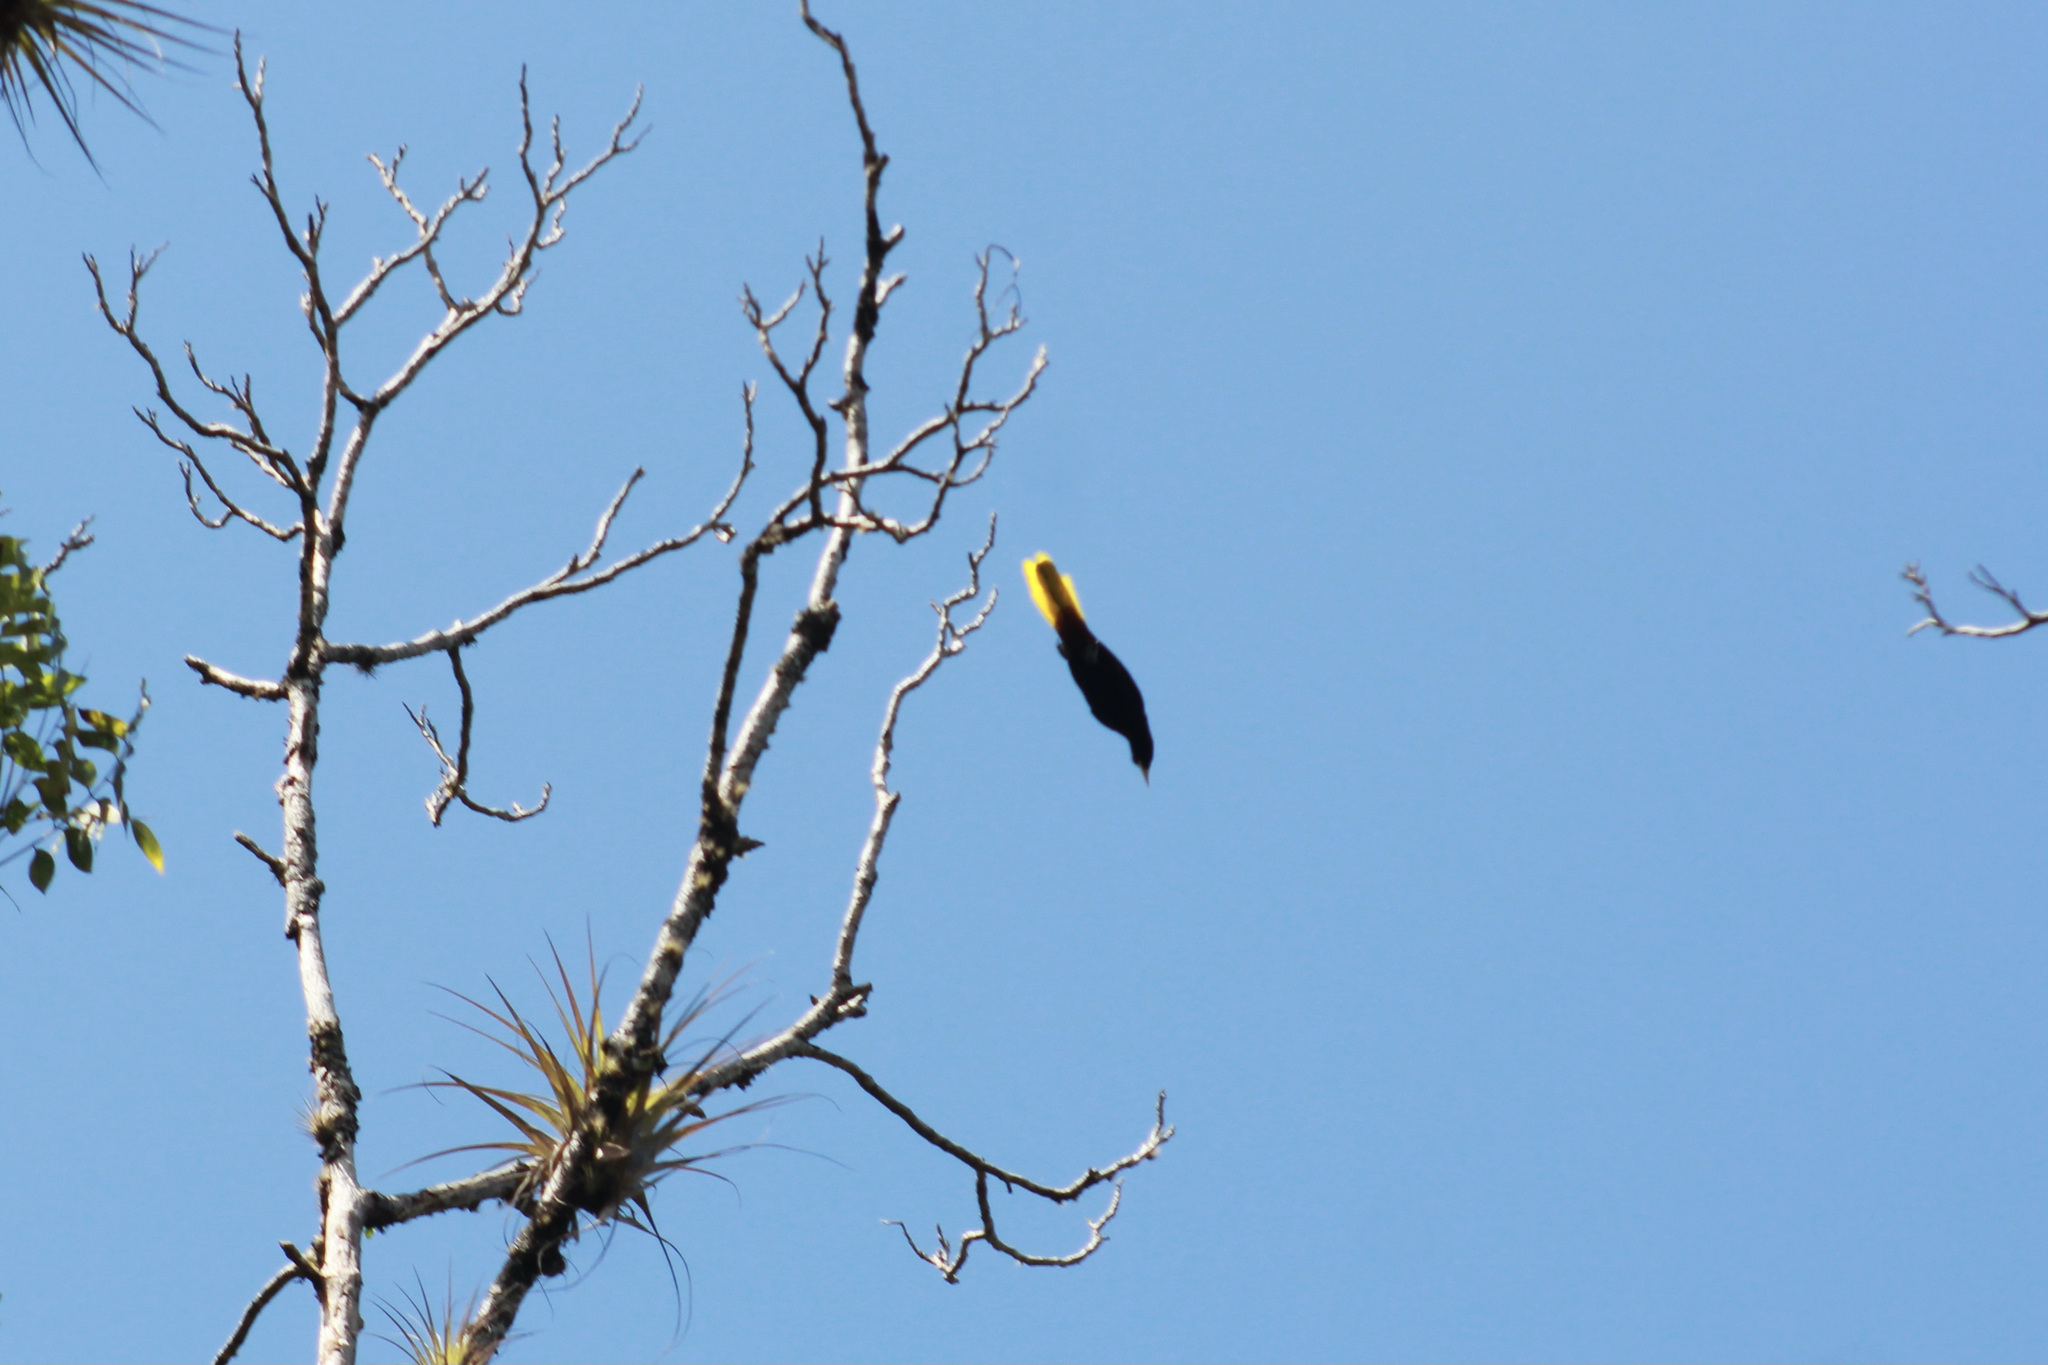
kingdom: Animalia
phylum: Chordata
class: Aves
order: Passeriformes
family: Icteridae
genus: Psarocolius
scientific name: Psarocolius decumanus
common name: Crested oropendola
